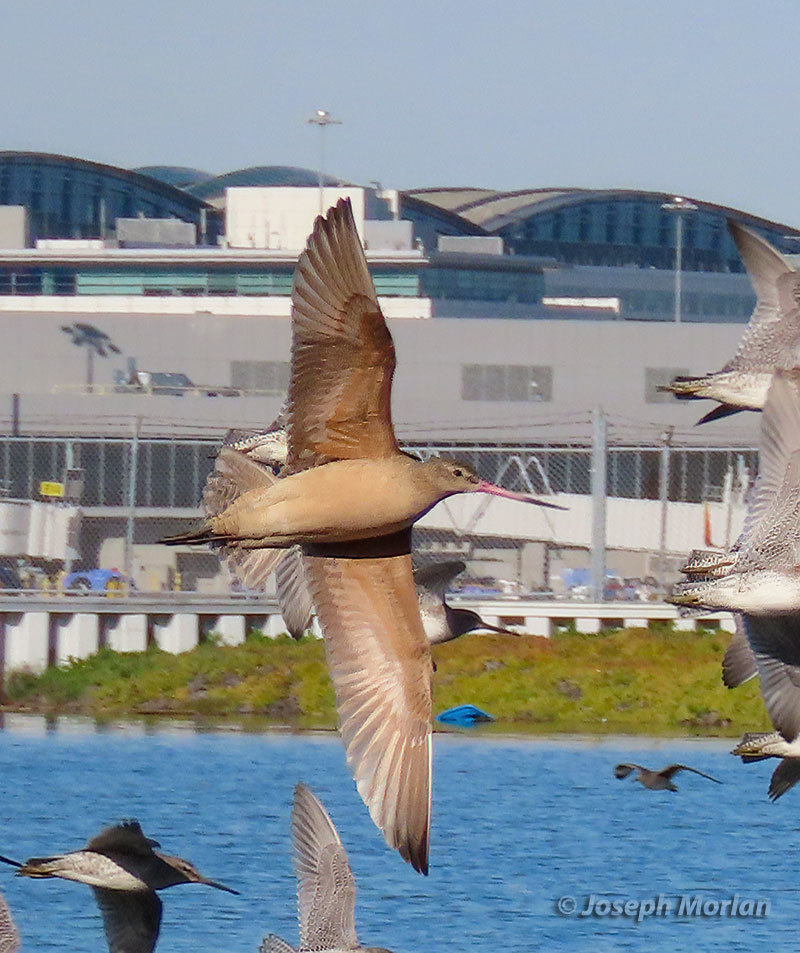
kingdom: Animalia
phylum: Chordata
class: Aves
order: Charadriiformes
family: Scolopacidae
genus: Limosa
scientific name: Limosa fedoa
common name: Marbled godwit
